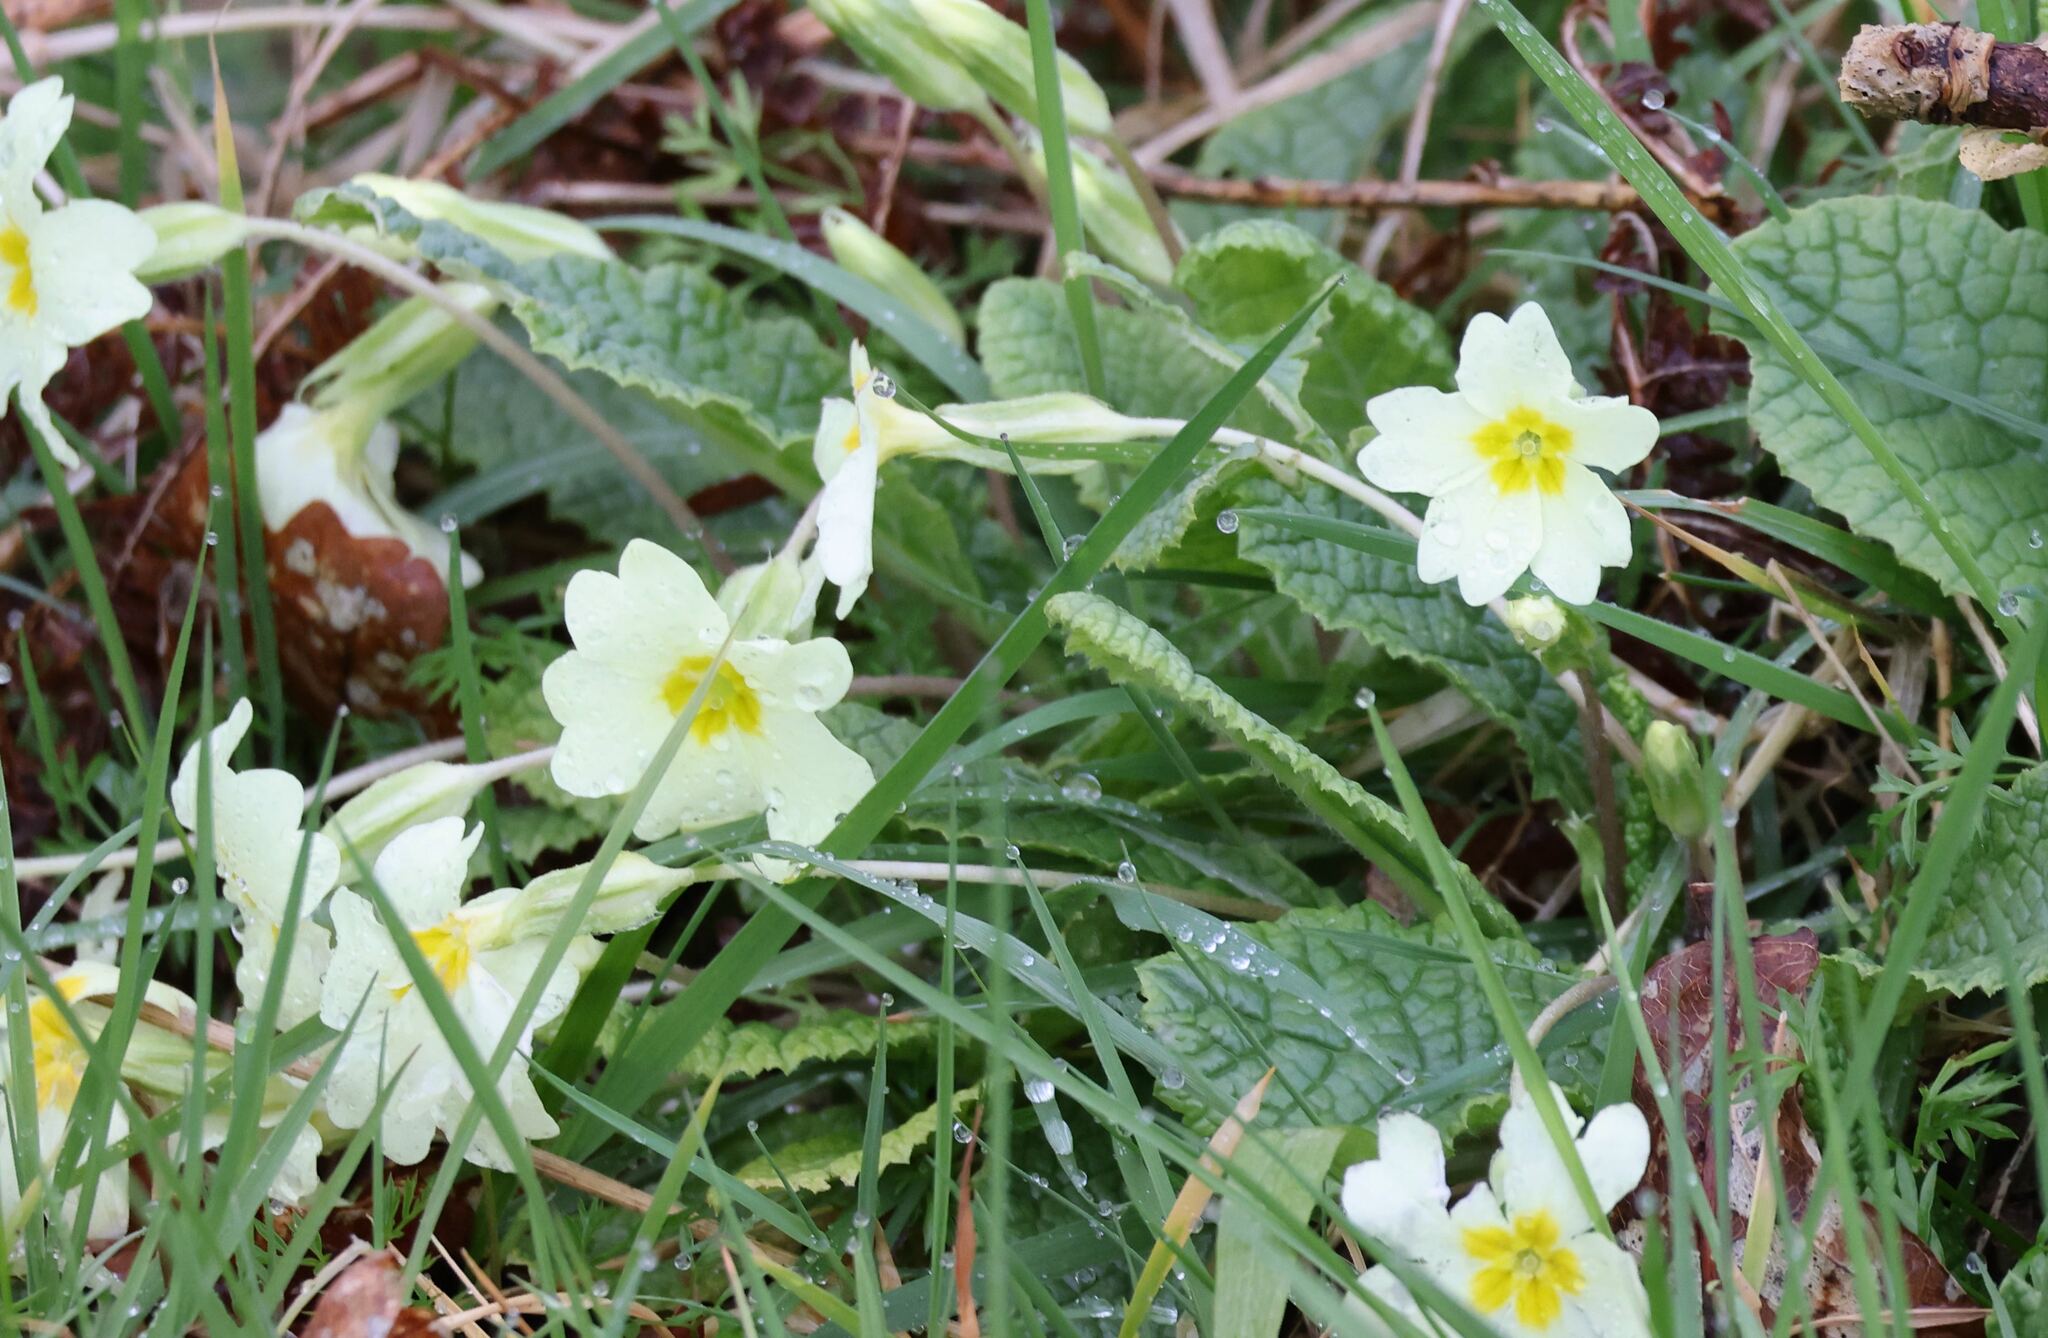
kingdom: Plantae
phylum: Tracheophyta
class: Magnoliopsida
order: Ericales
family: Primulaceae
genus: Primula
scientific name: Primula vulgaris
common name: Primrose
